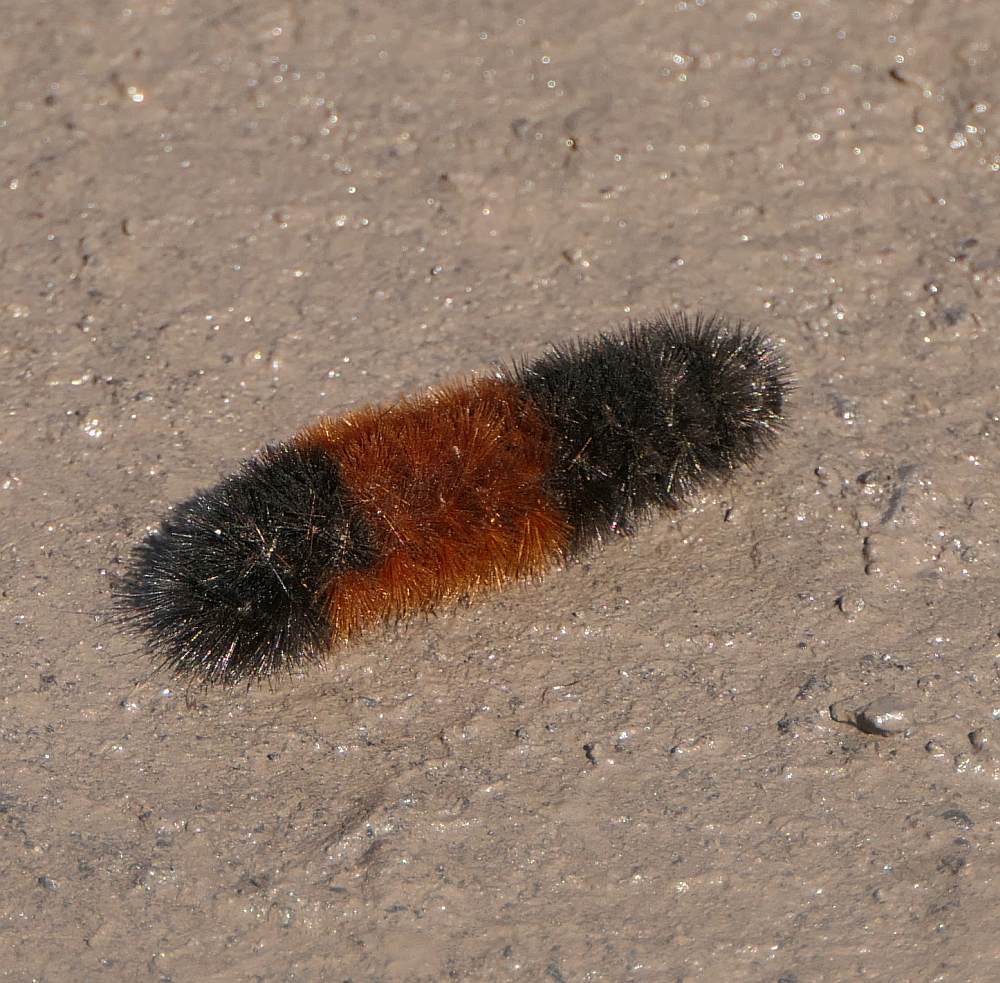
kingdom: Animalia
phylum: Arthropoda
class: Insecta
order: Lepidoptera
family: Erebidae
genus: Pyrrharctia
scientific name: Pyrrharctia isabella
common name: Isabella tiger moth
